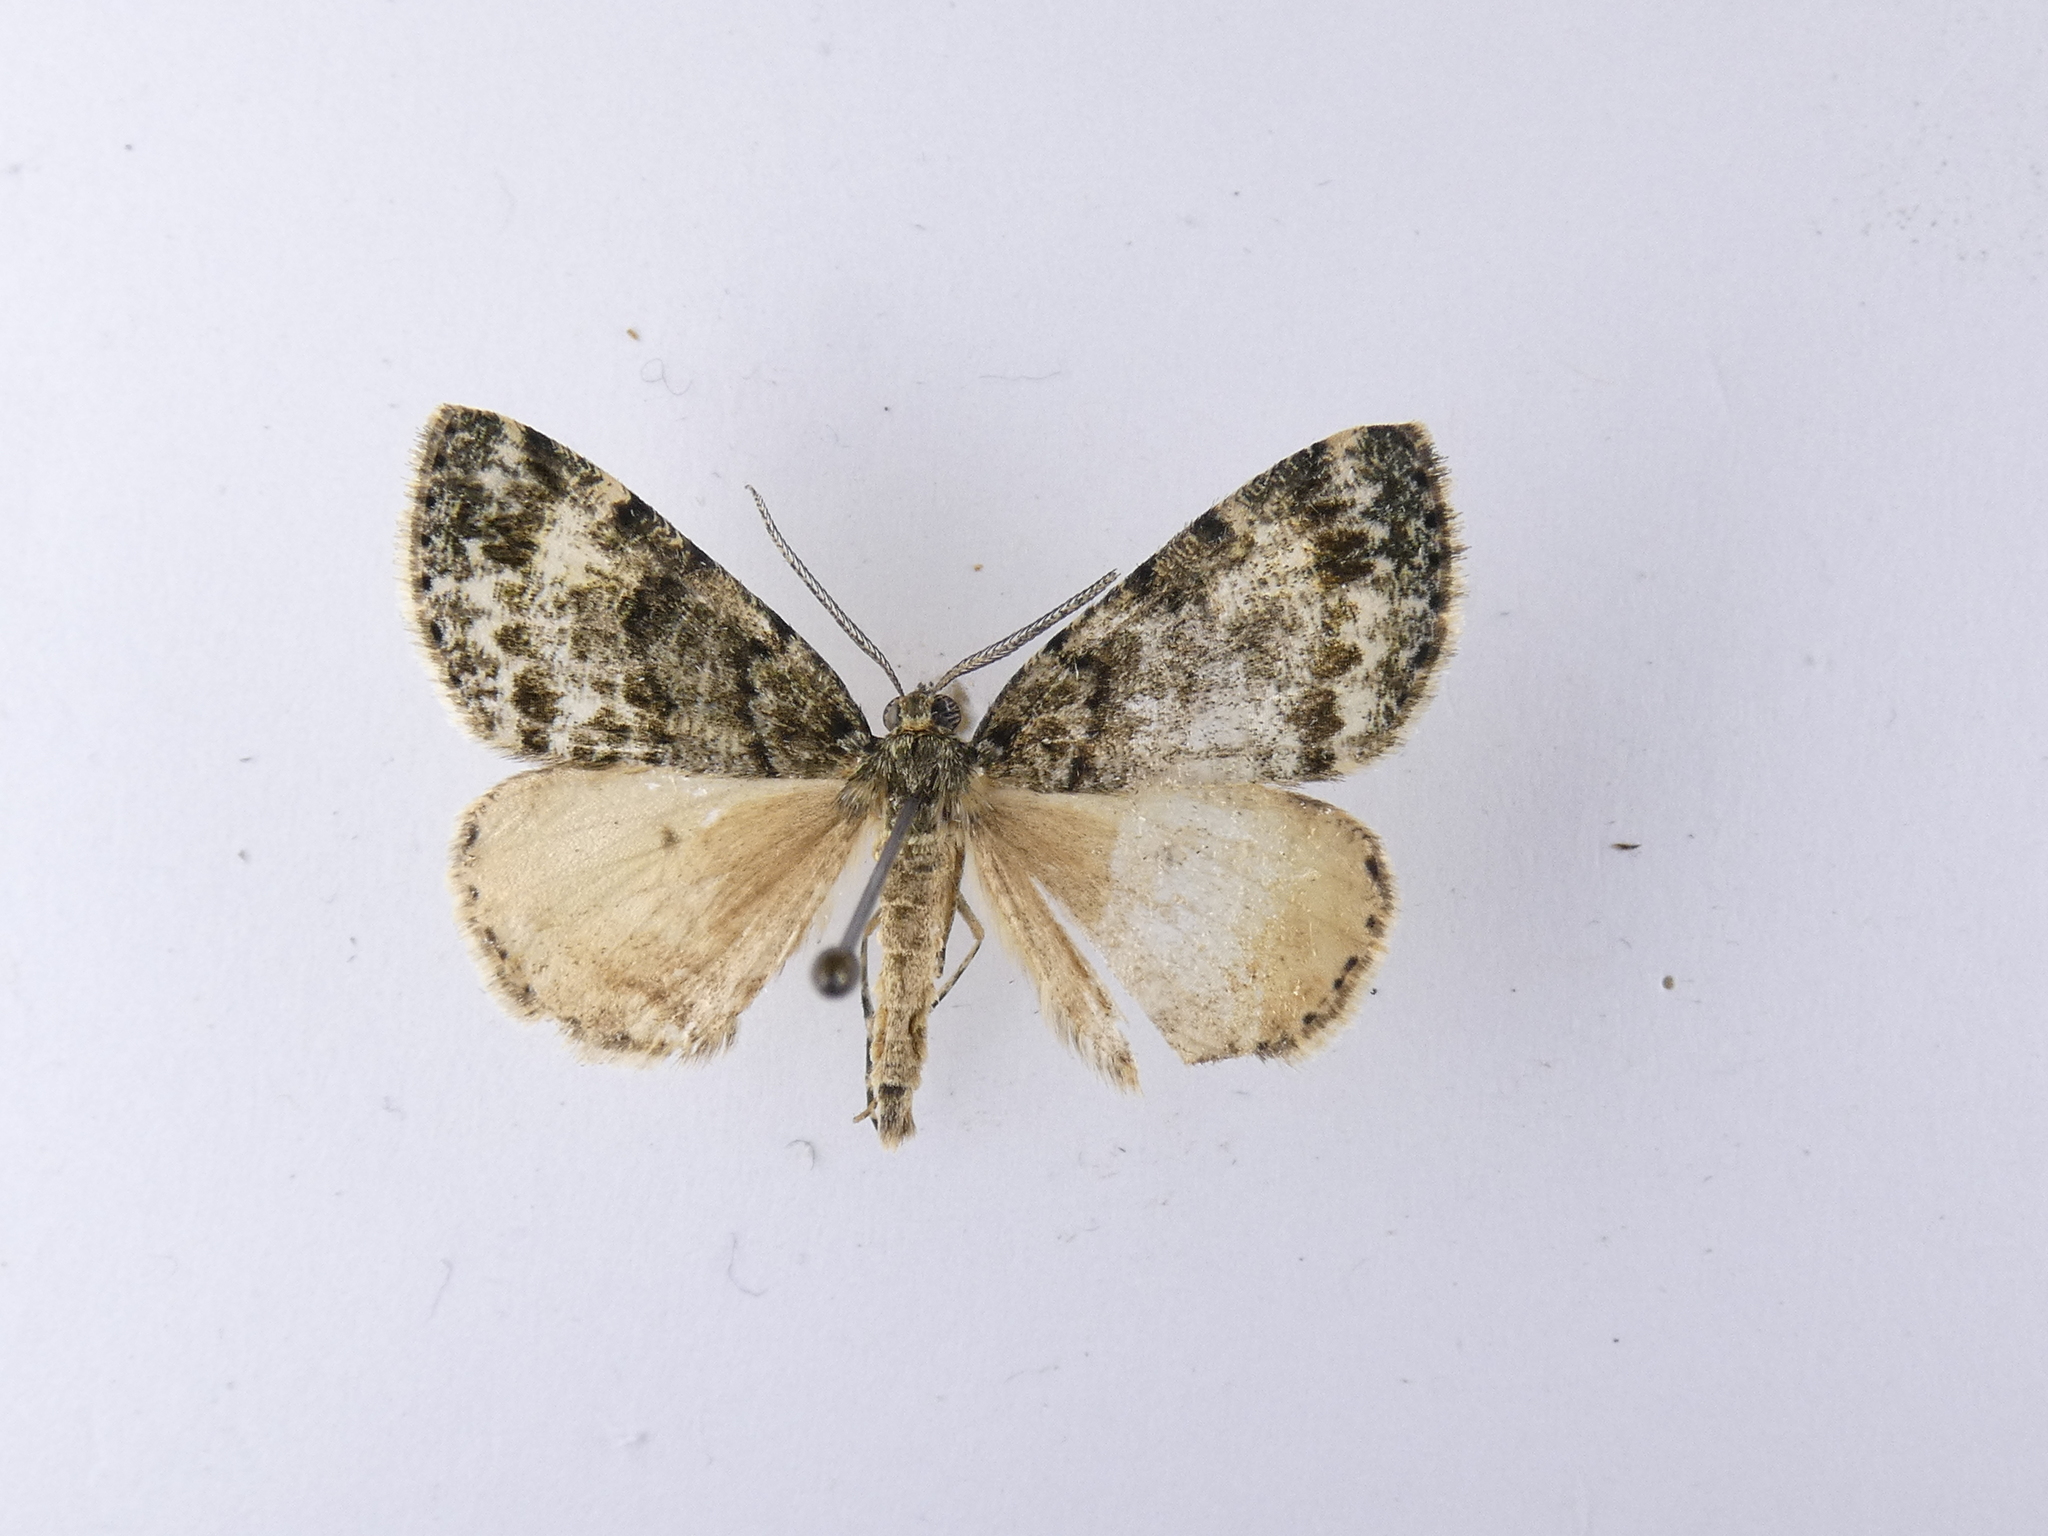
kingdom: Animalia
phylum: Arthropoda
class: Insecta
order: Lepidoptera
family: Geometridae
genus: Pseudocoremia
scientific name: Pseudocoremia indistincta
